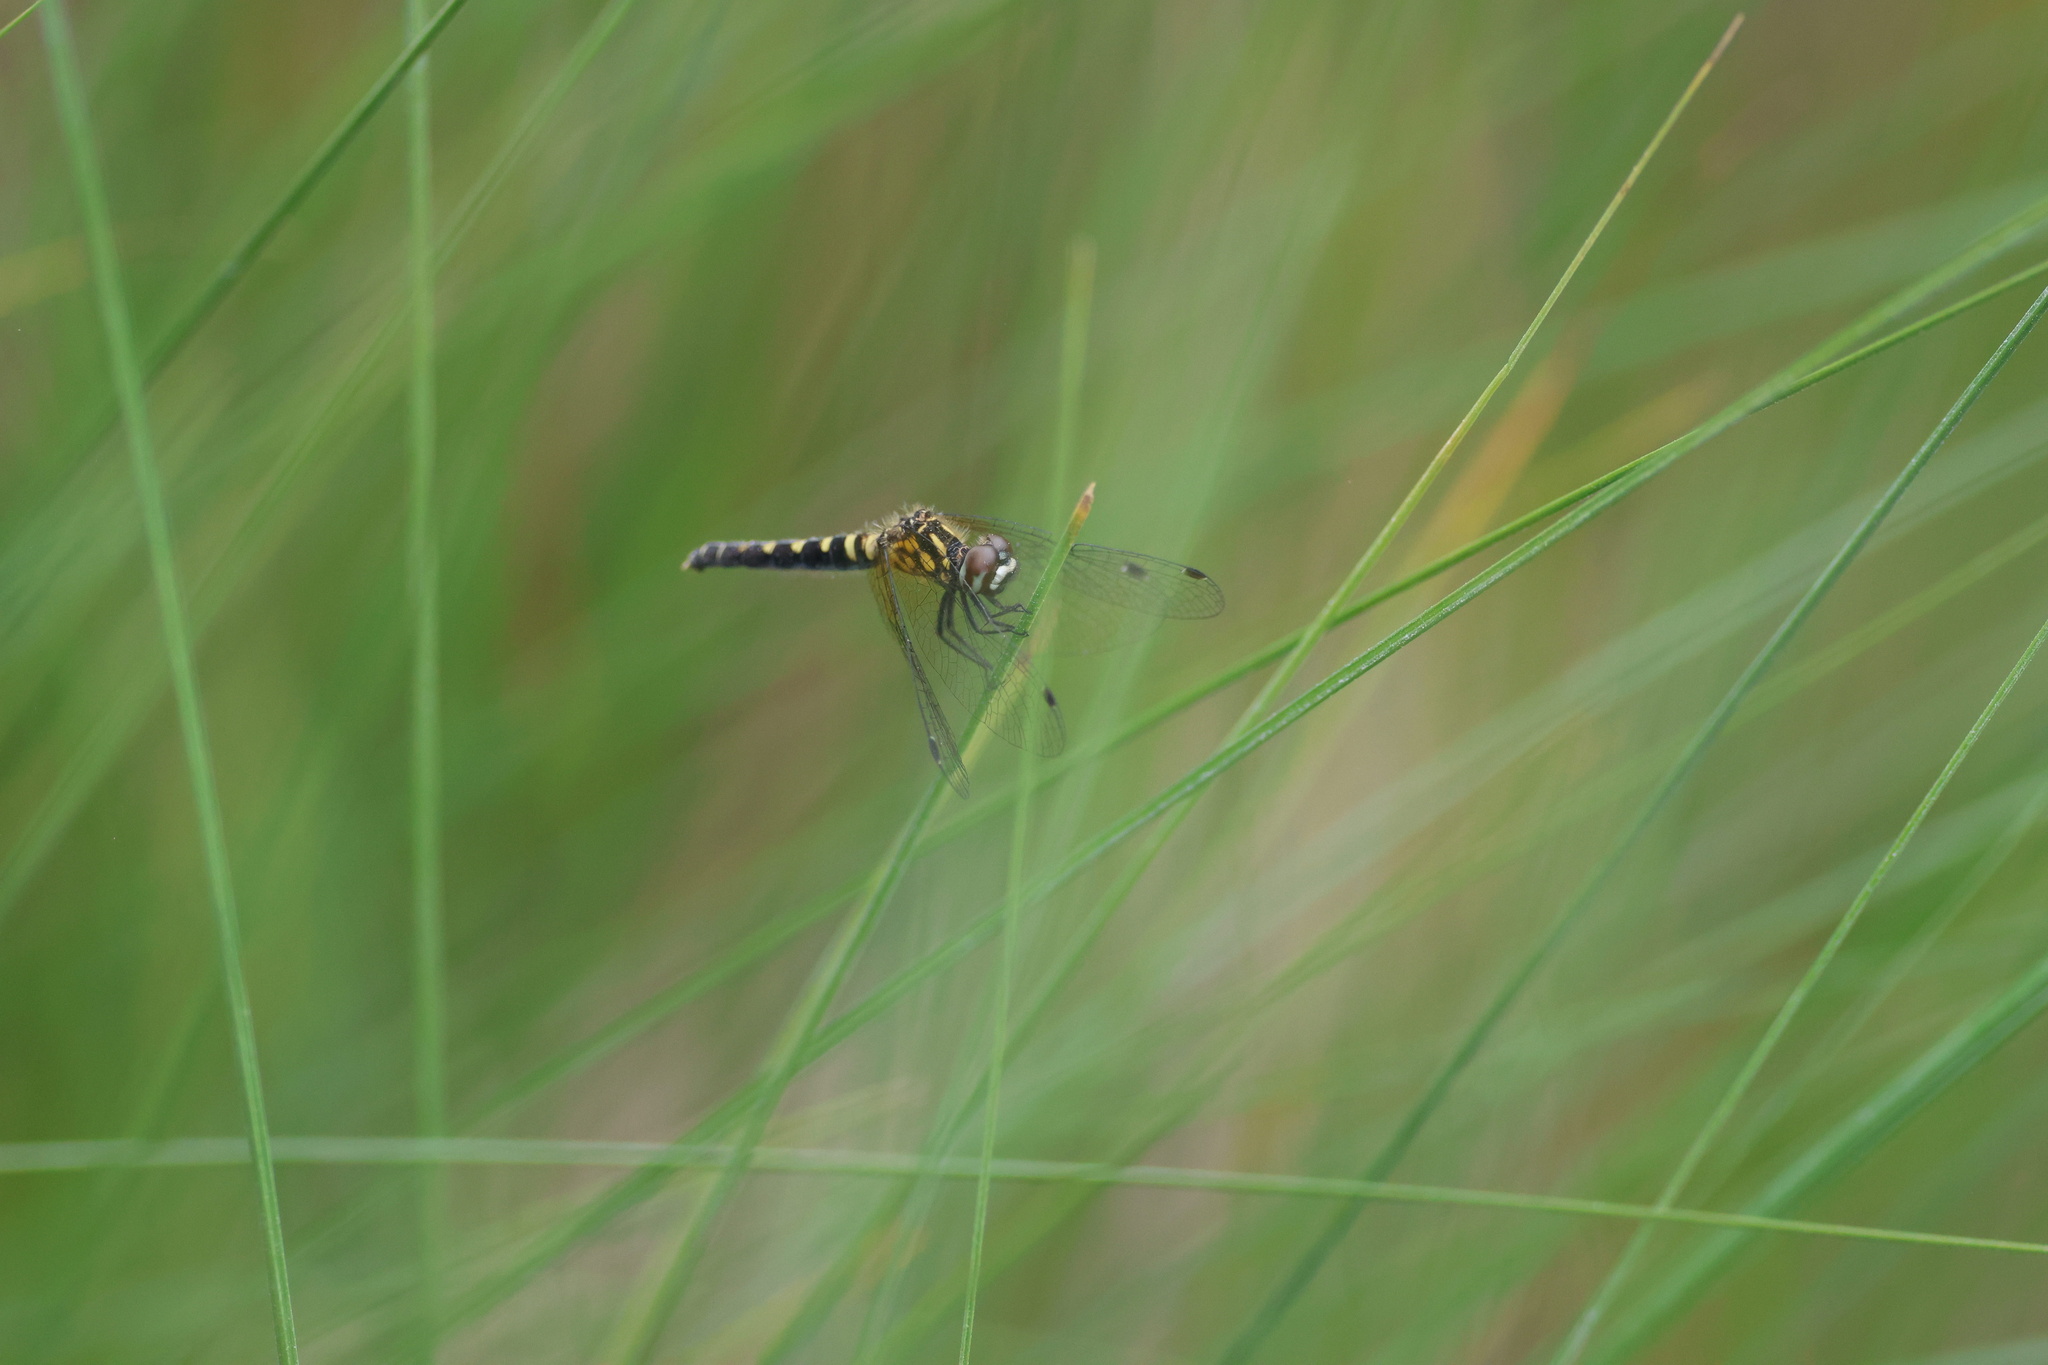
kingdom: Animalia
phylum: Arthropoda
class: Insecta
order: Odonata
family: Libellulidae
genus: Nannothemis
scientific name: Nannothemis bella
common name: Elfin skimmer
